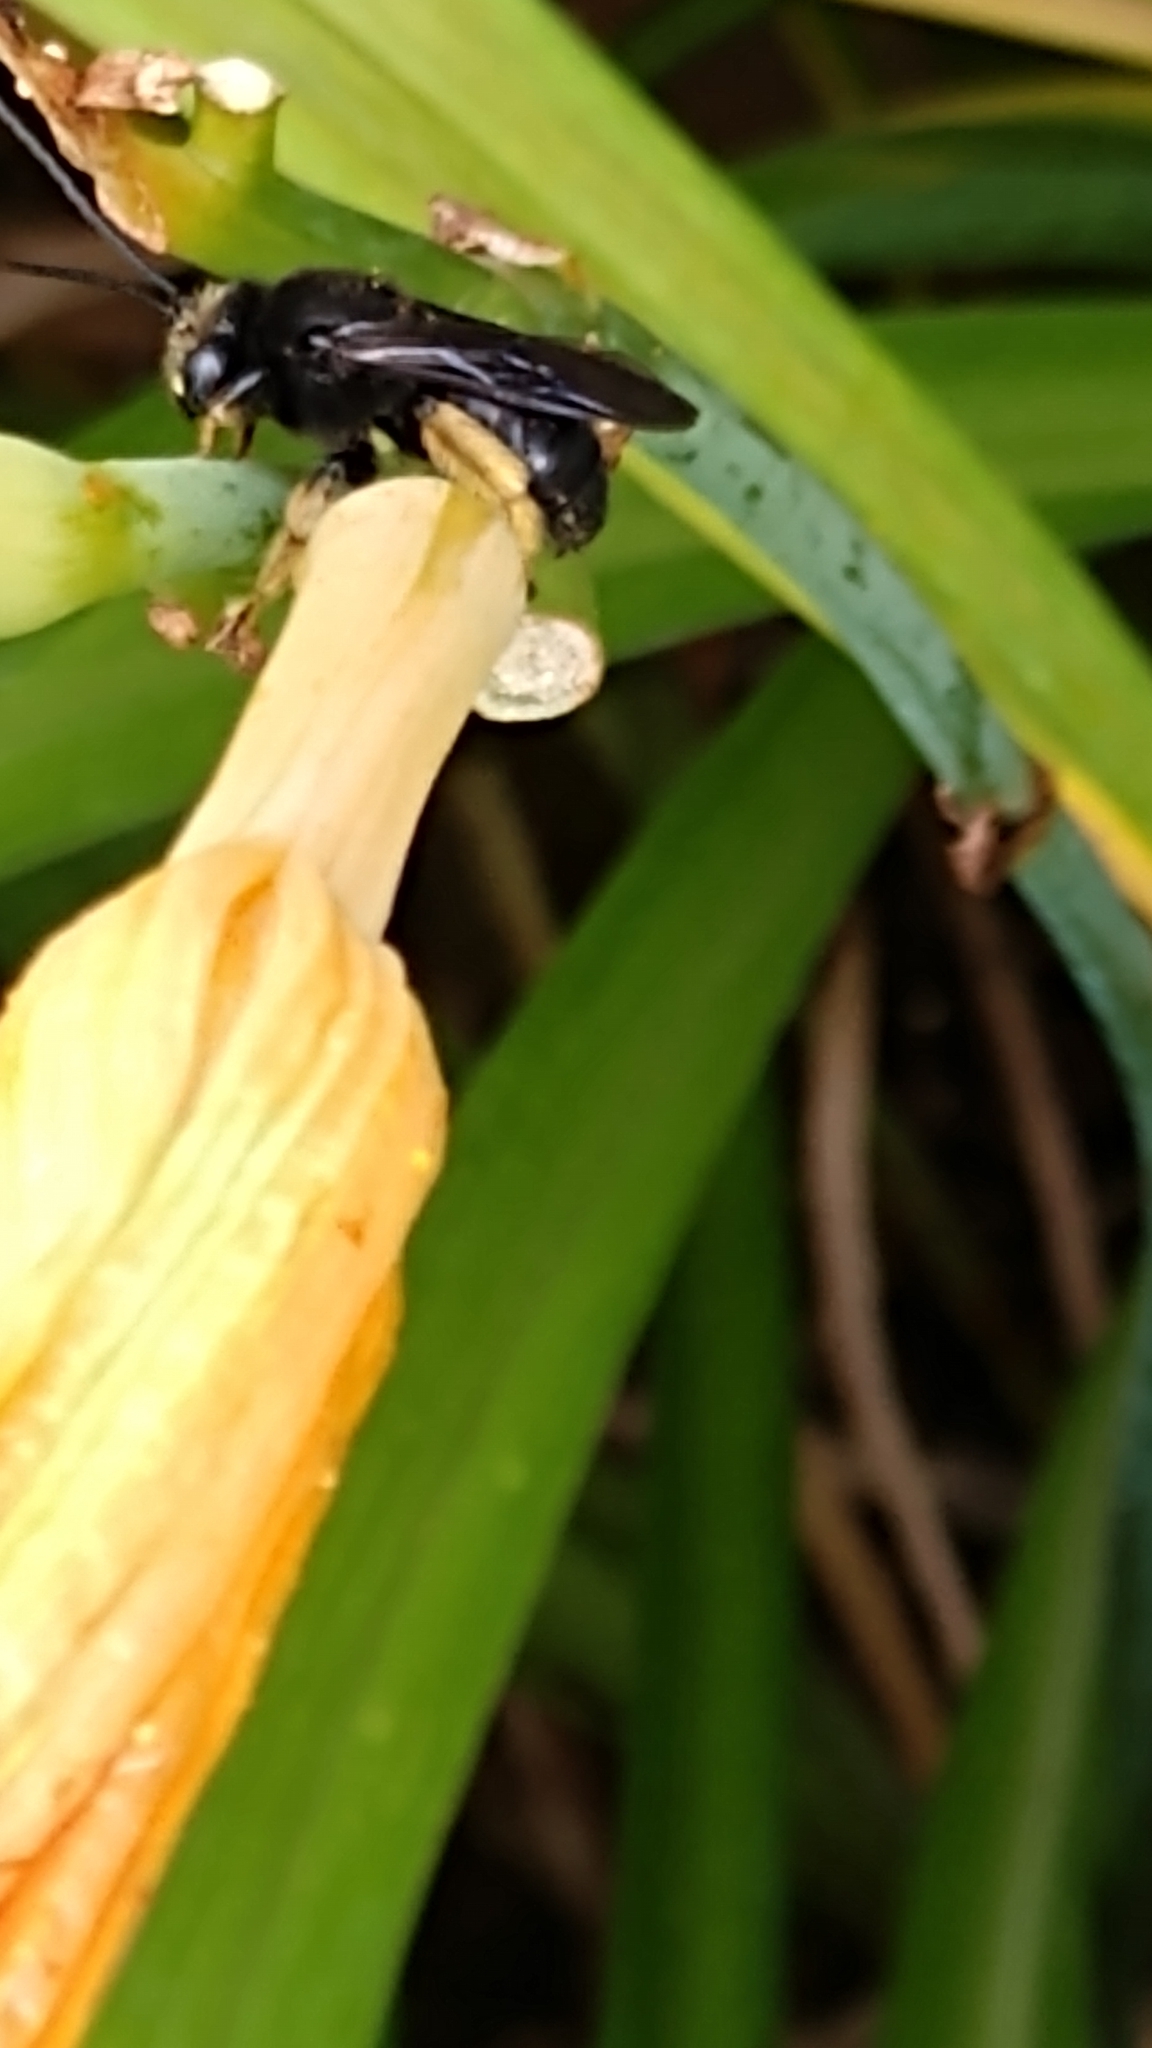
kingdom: Animalia
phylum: Arthropoda
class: Insecta
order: Hymenoptera
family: Apidae
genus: Melissodes
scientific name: Melissodes bimaculatus
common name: Two-spotted long-horned bee
